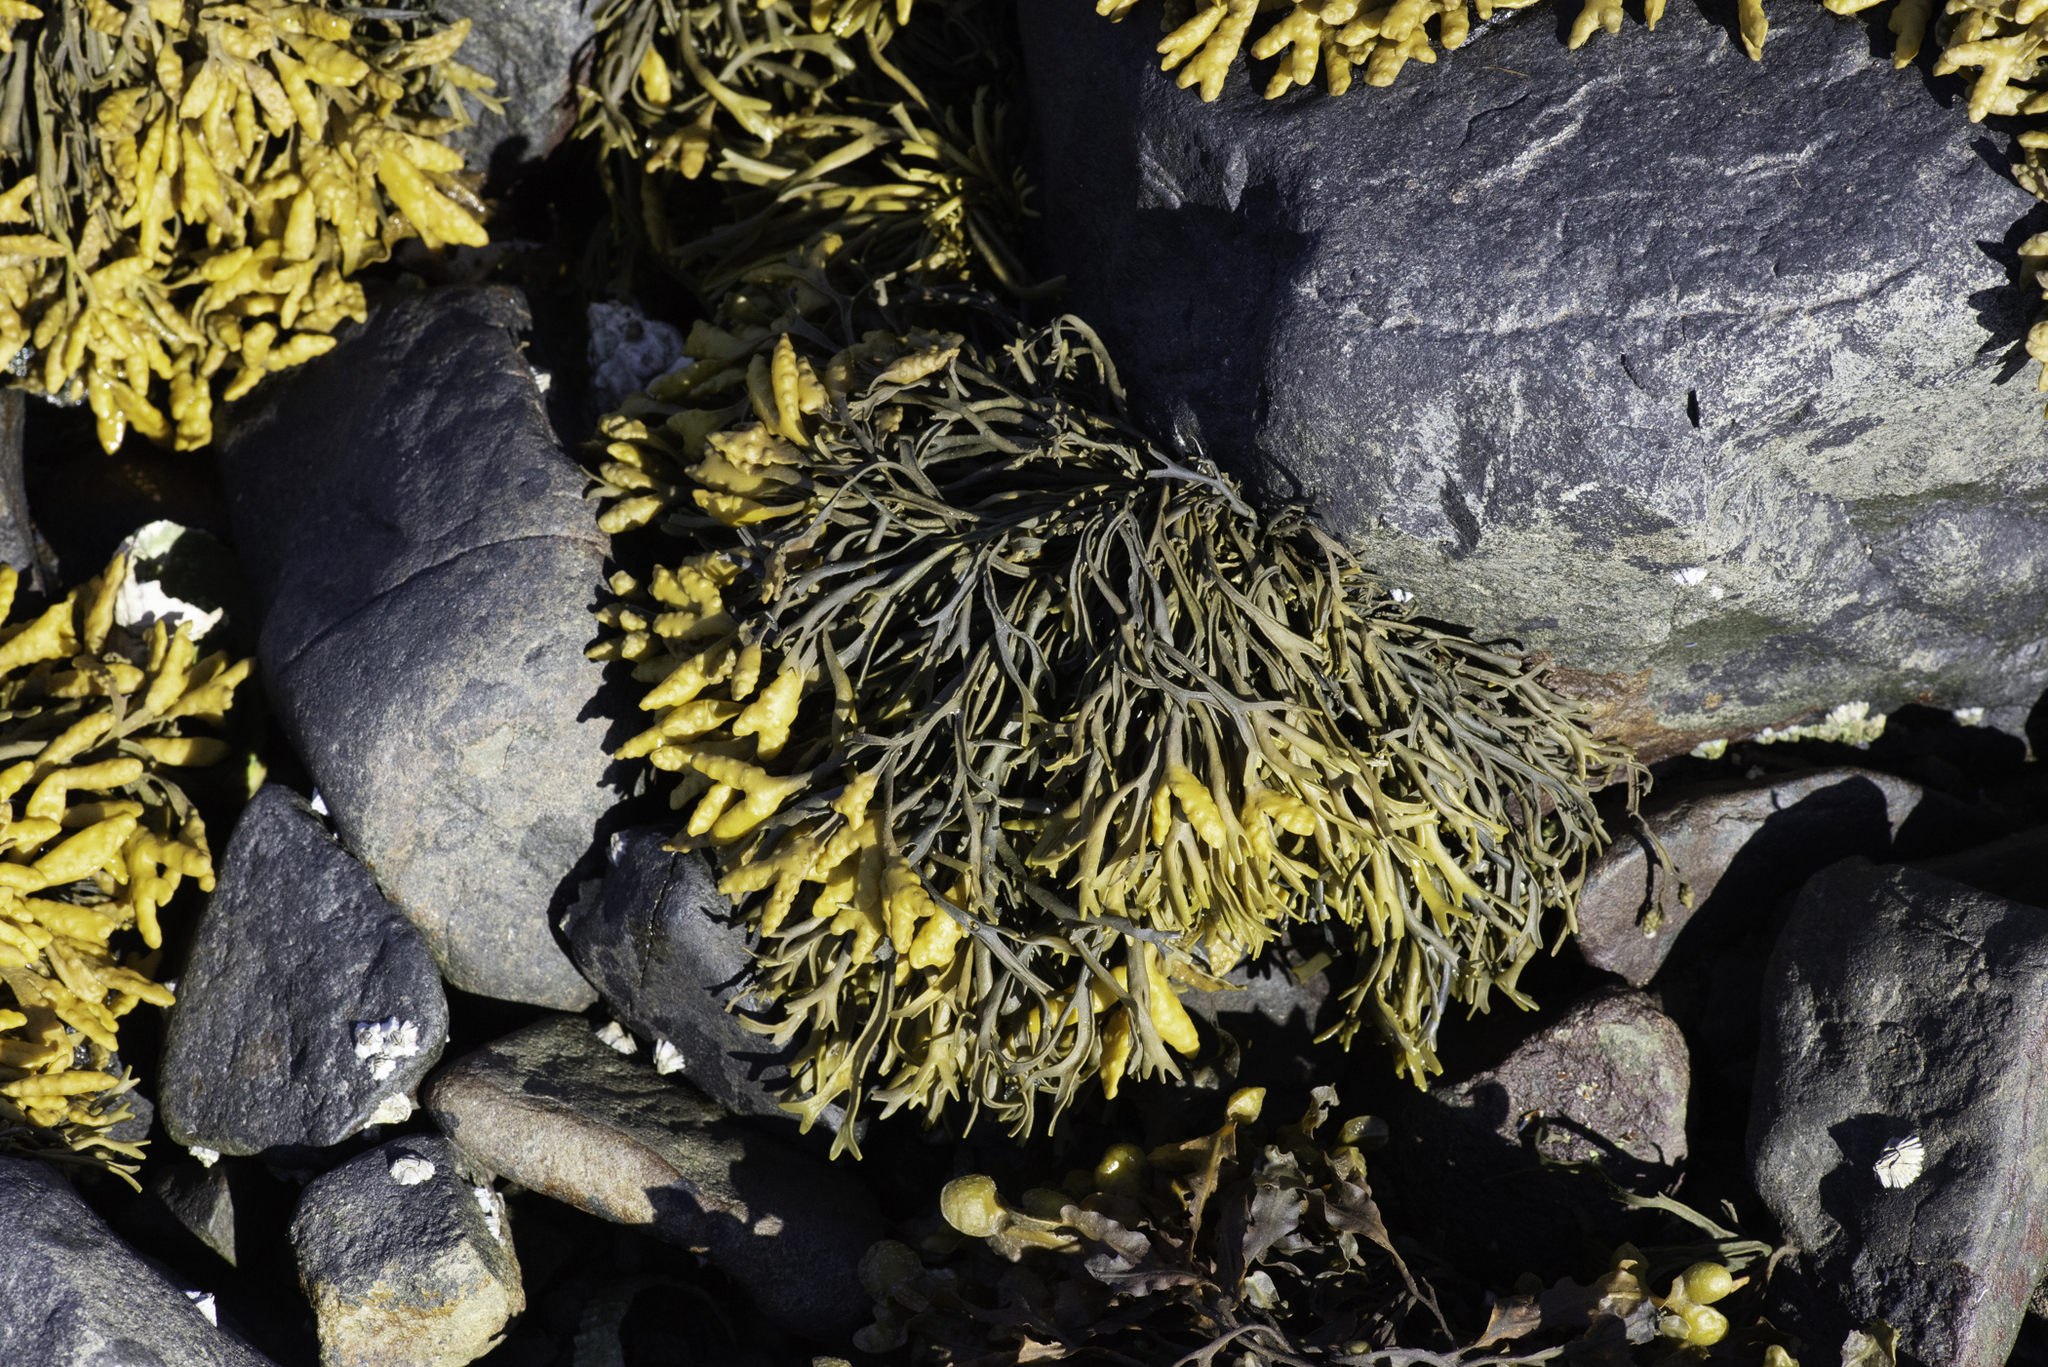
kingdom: Chromista
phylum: Ochrophyta
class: Phaeophyceae
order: Fucales
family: Fucaceae
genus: Pelvetia
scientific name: Pelvetia canaliculata
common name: Channelled wrack
